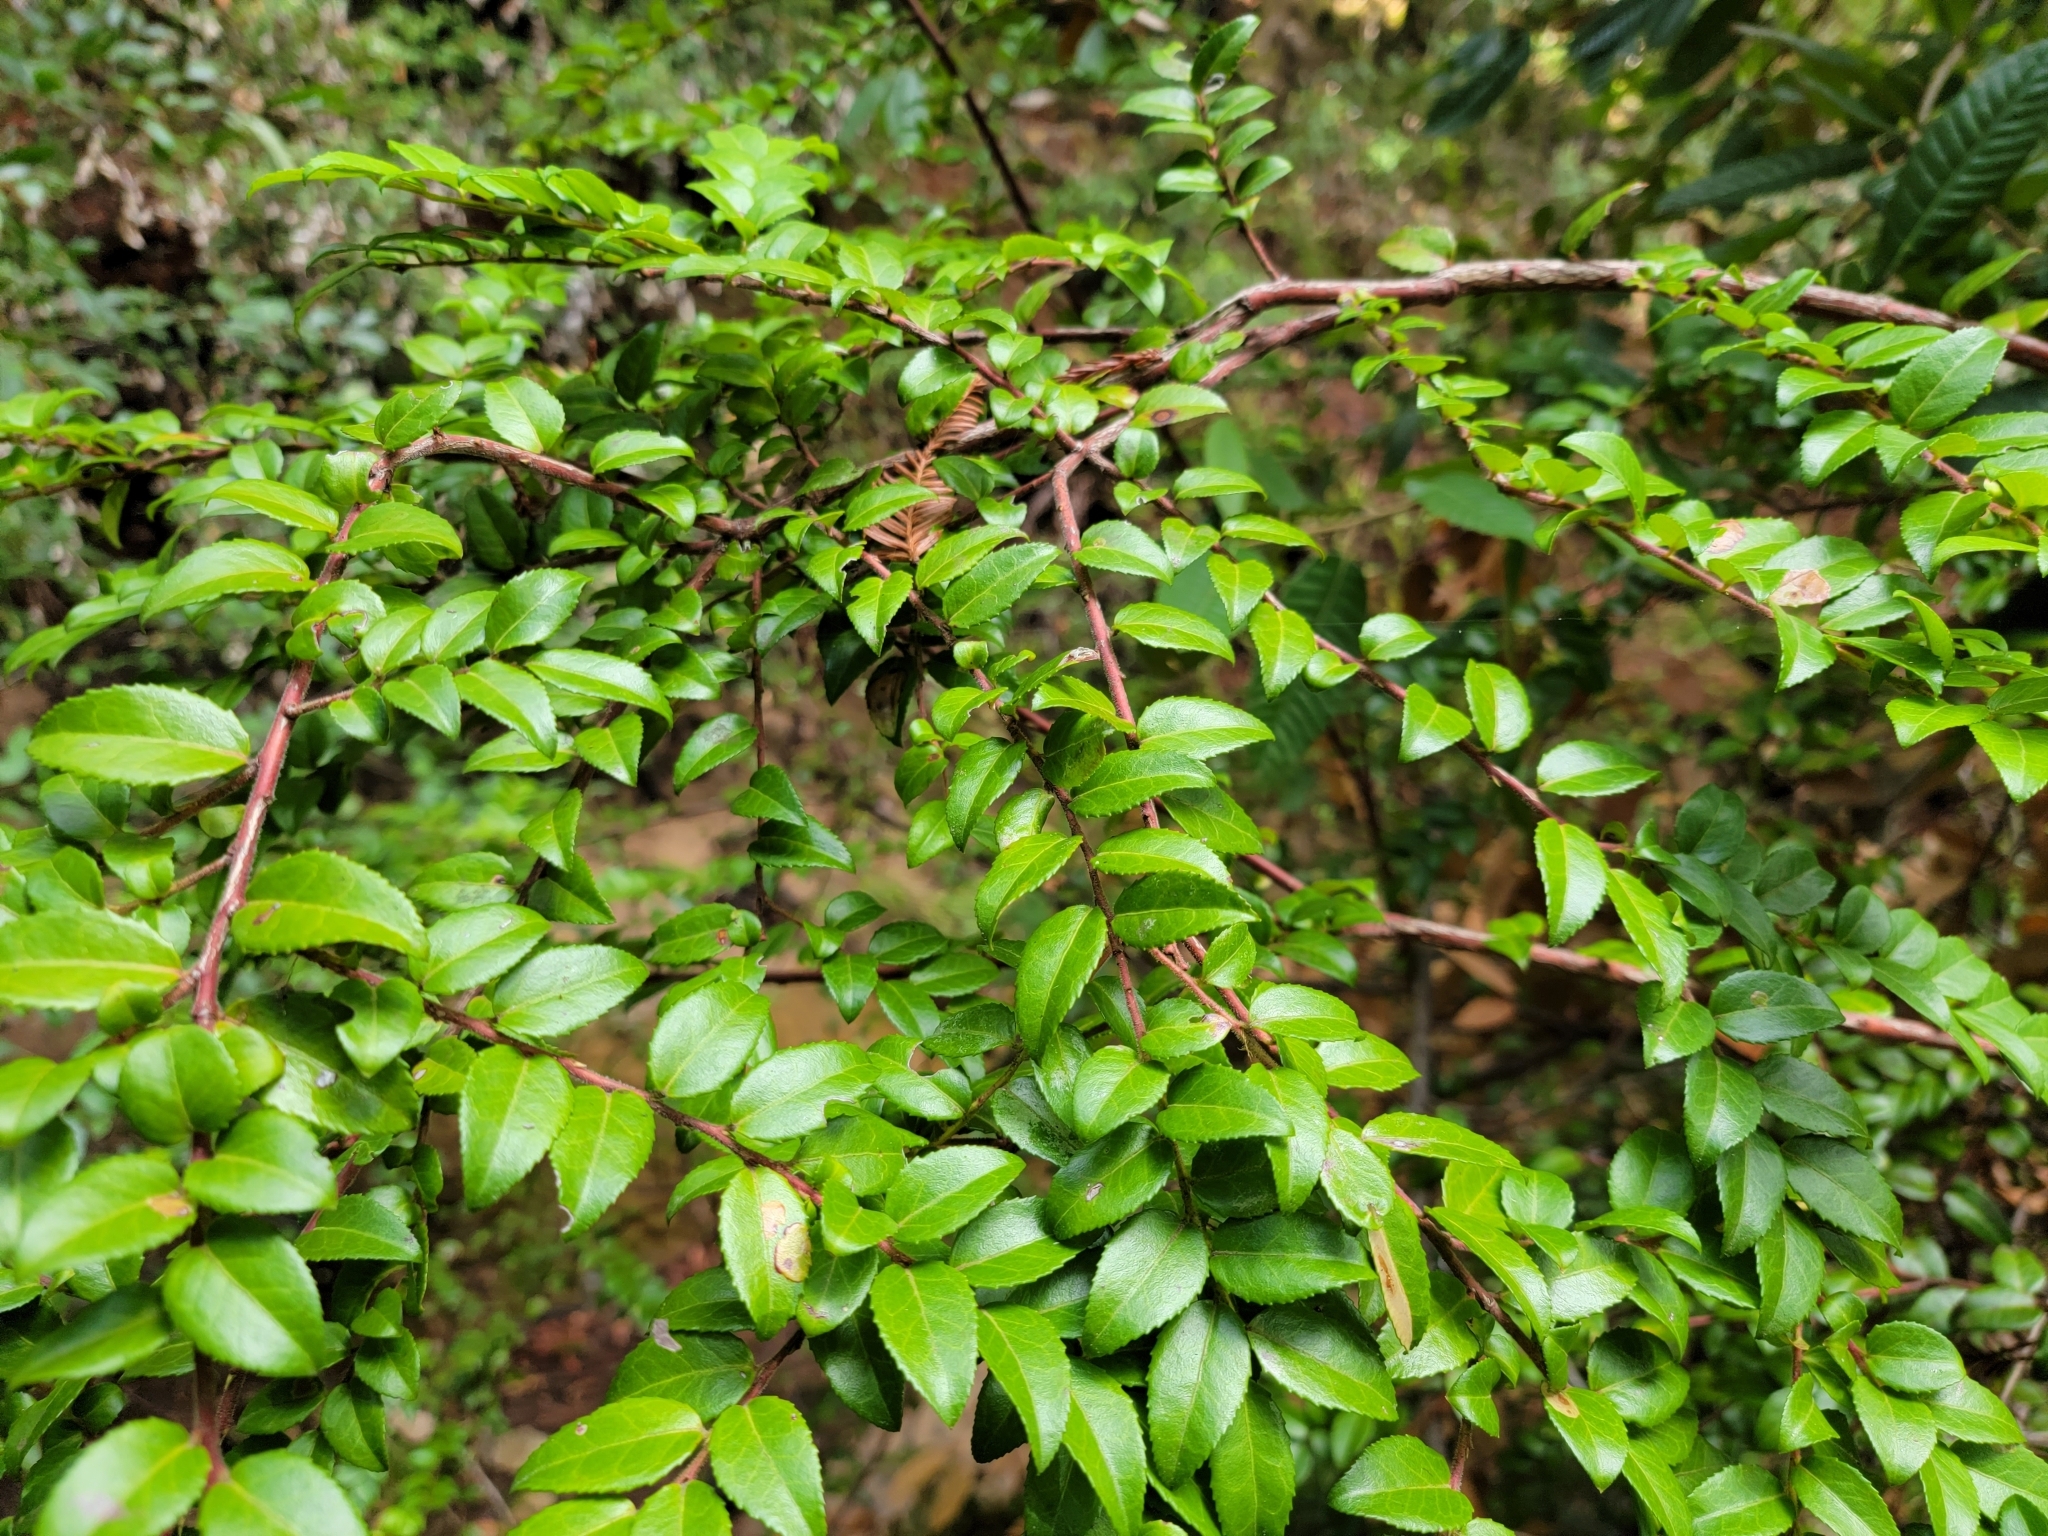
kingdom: Plantae
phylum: Tracheophyta
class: Magnoliopsida
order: Ericales
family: Ericaceae
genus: Vaccinium
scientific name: Vaccinium ovatum
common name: California-huckleberry
